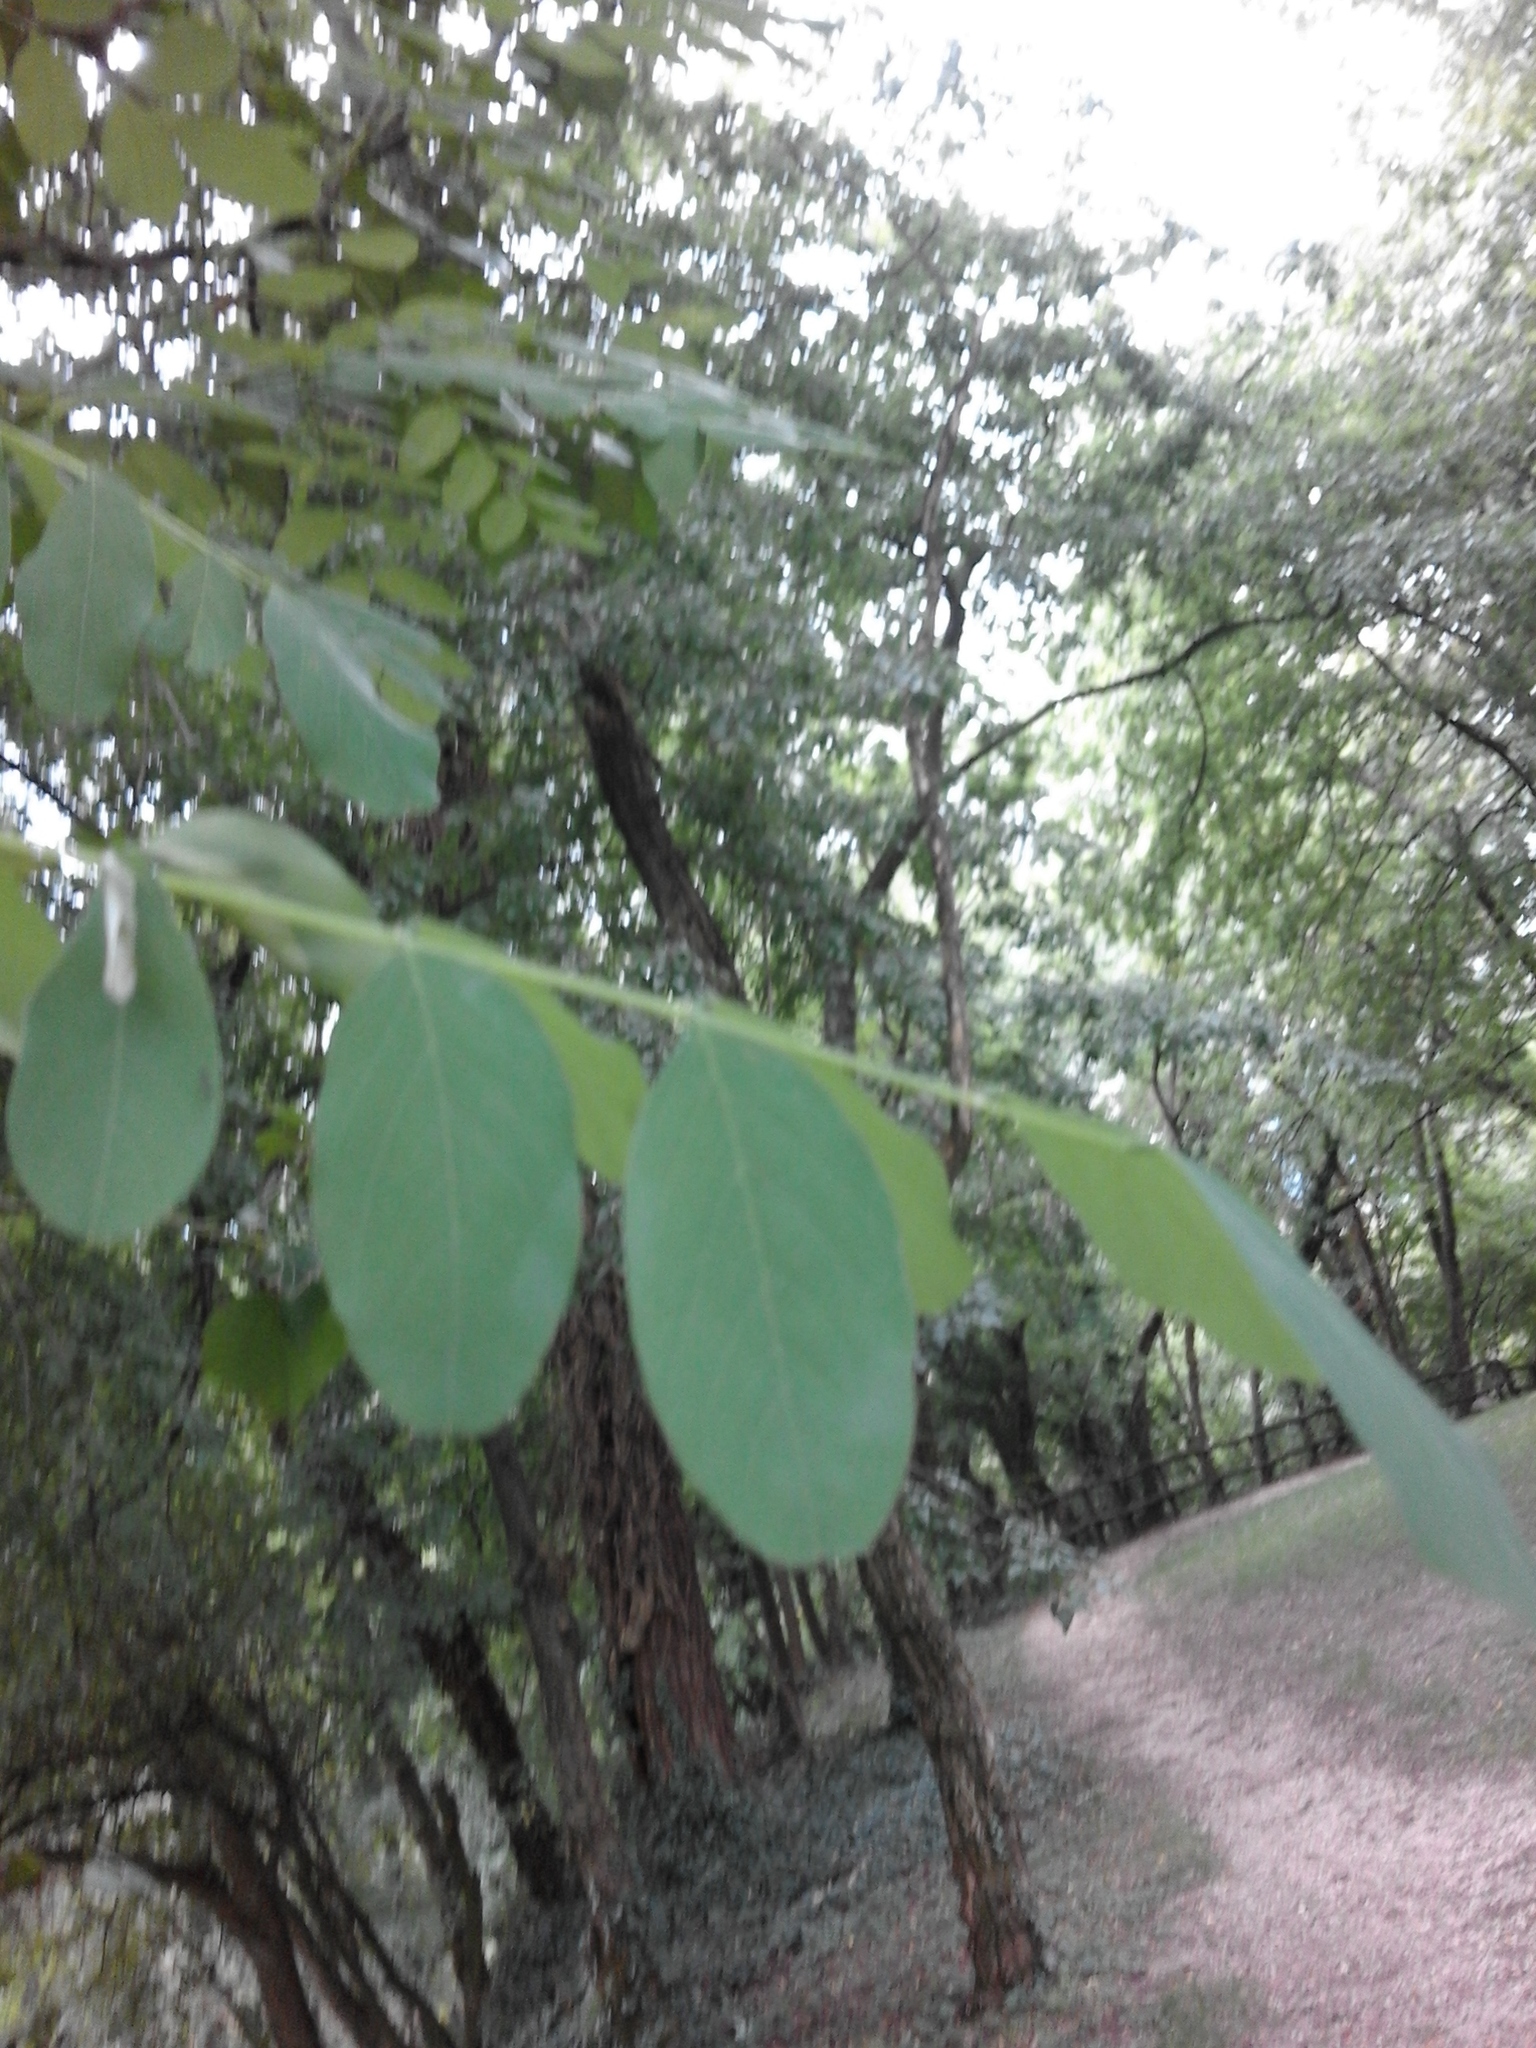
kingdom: Plantae
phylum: Tracheophyta
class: Magnoliopsida
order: Fabales
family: Fabaceae
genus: Robinia
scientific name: Robinia pseudoacacia
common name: Black locust
